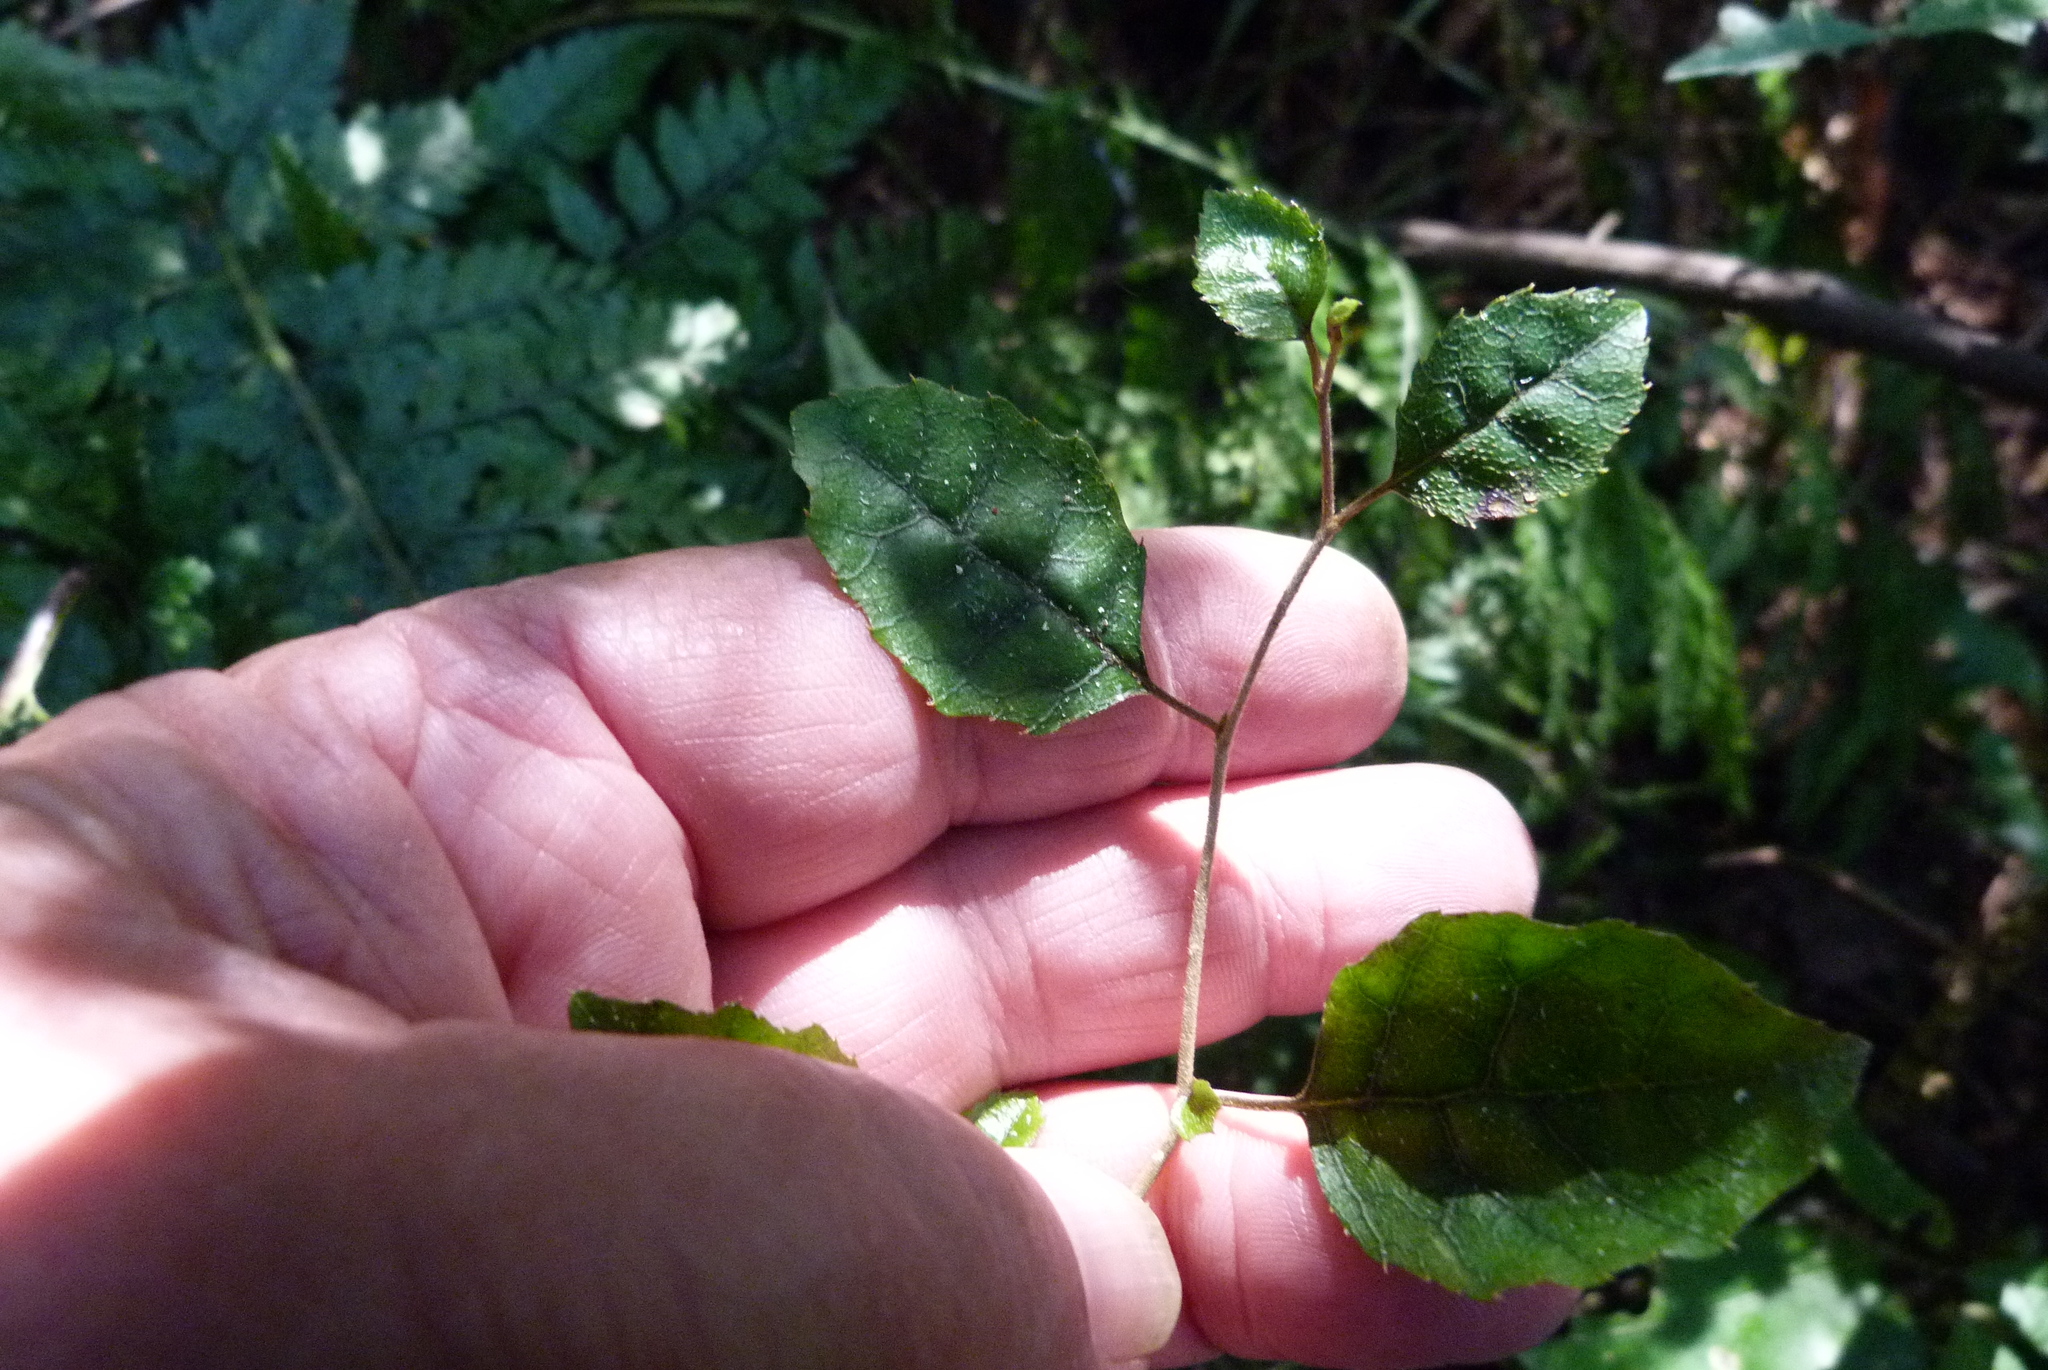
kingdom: Plantae
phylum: Tracheophyta
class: Magnoliopsida
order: Asterales
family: Rousseaceae
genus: Carpodetus
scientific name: Carpodetus serratus
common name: White mapau
